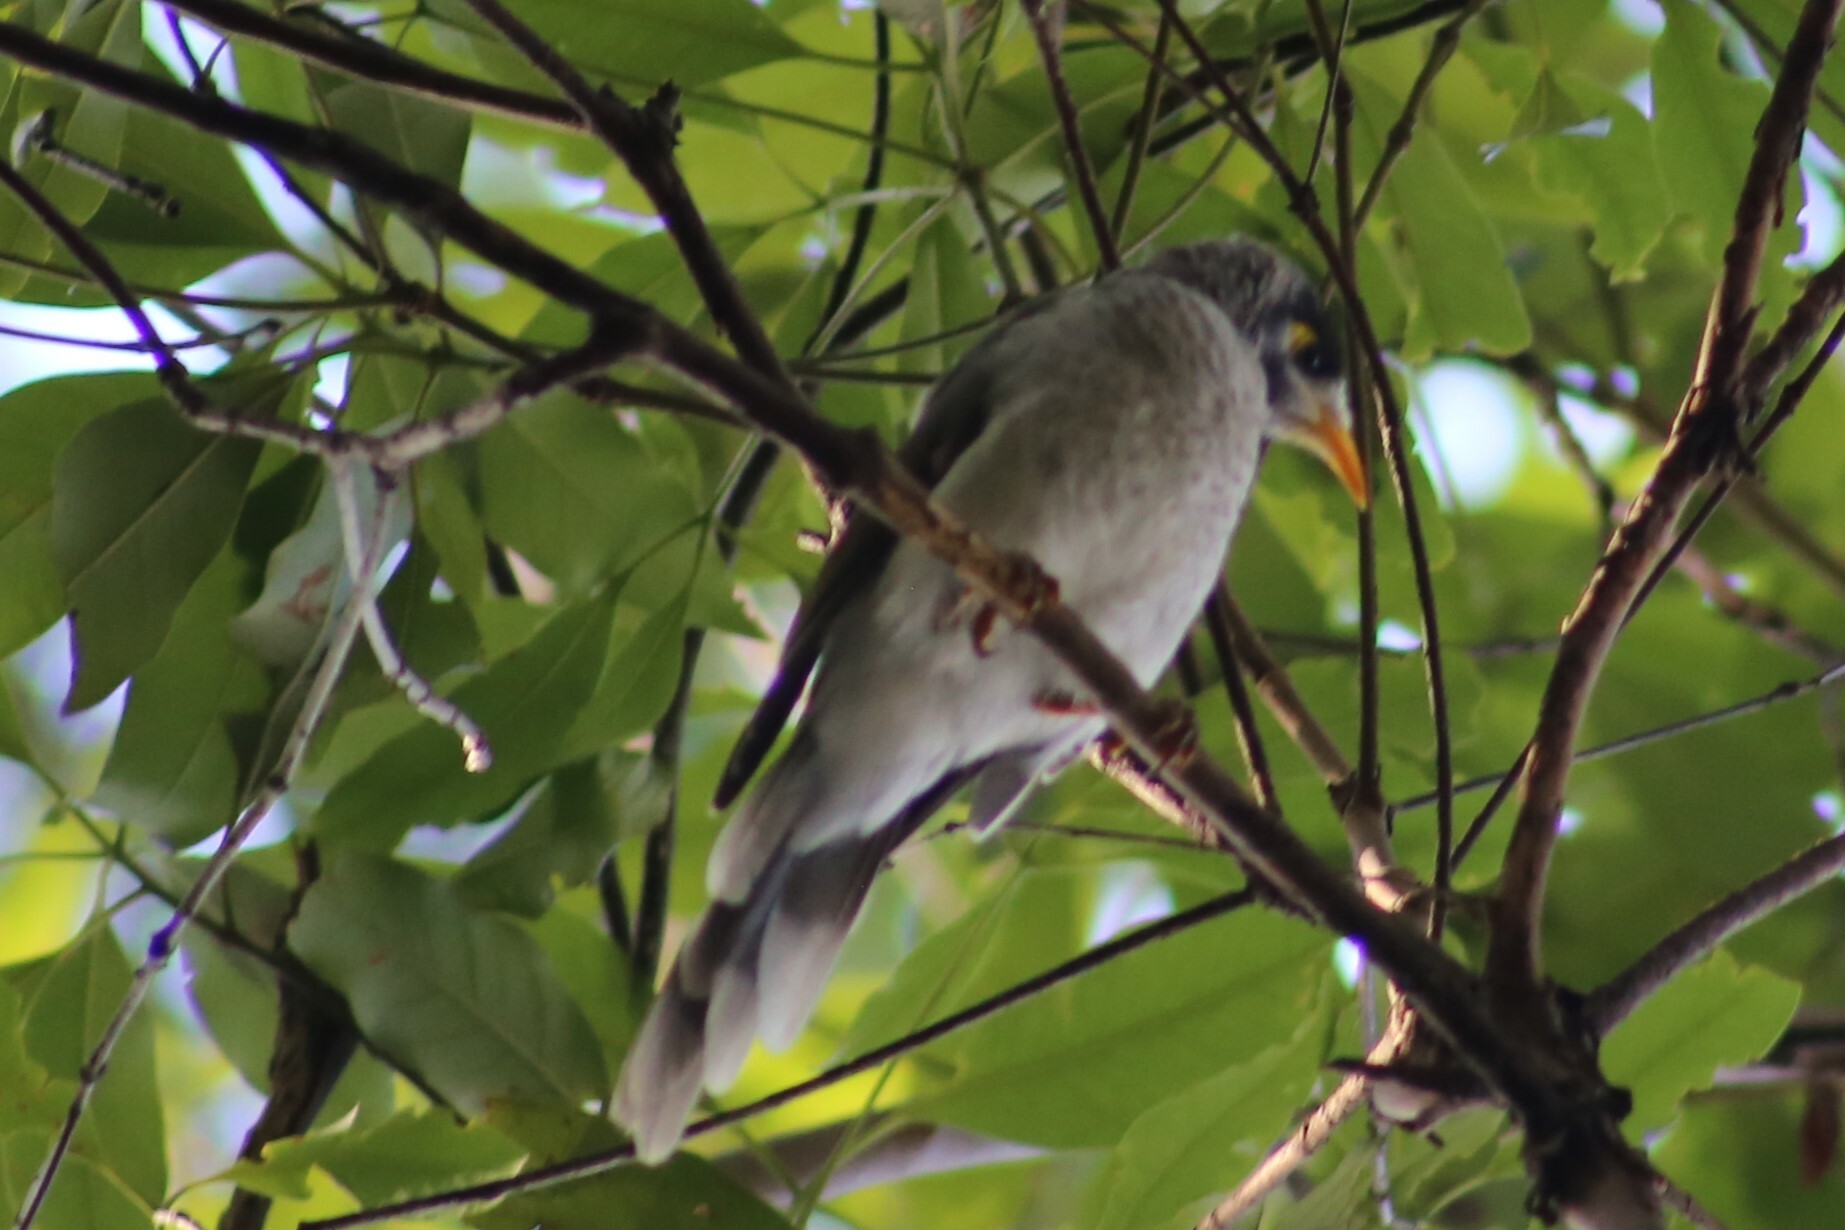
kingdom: Animalia
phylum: Chordata
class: Aves
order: Passeriformes
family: Meliphagidae
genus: Manorina
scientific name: Manorina melanocephala
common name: Noisy miner
